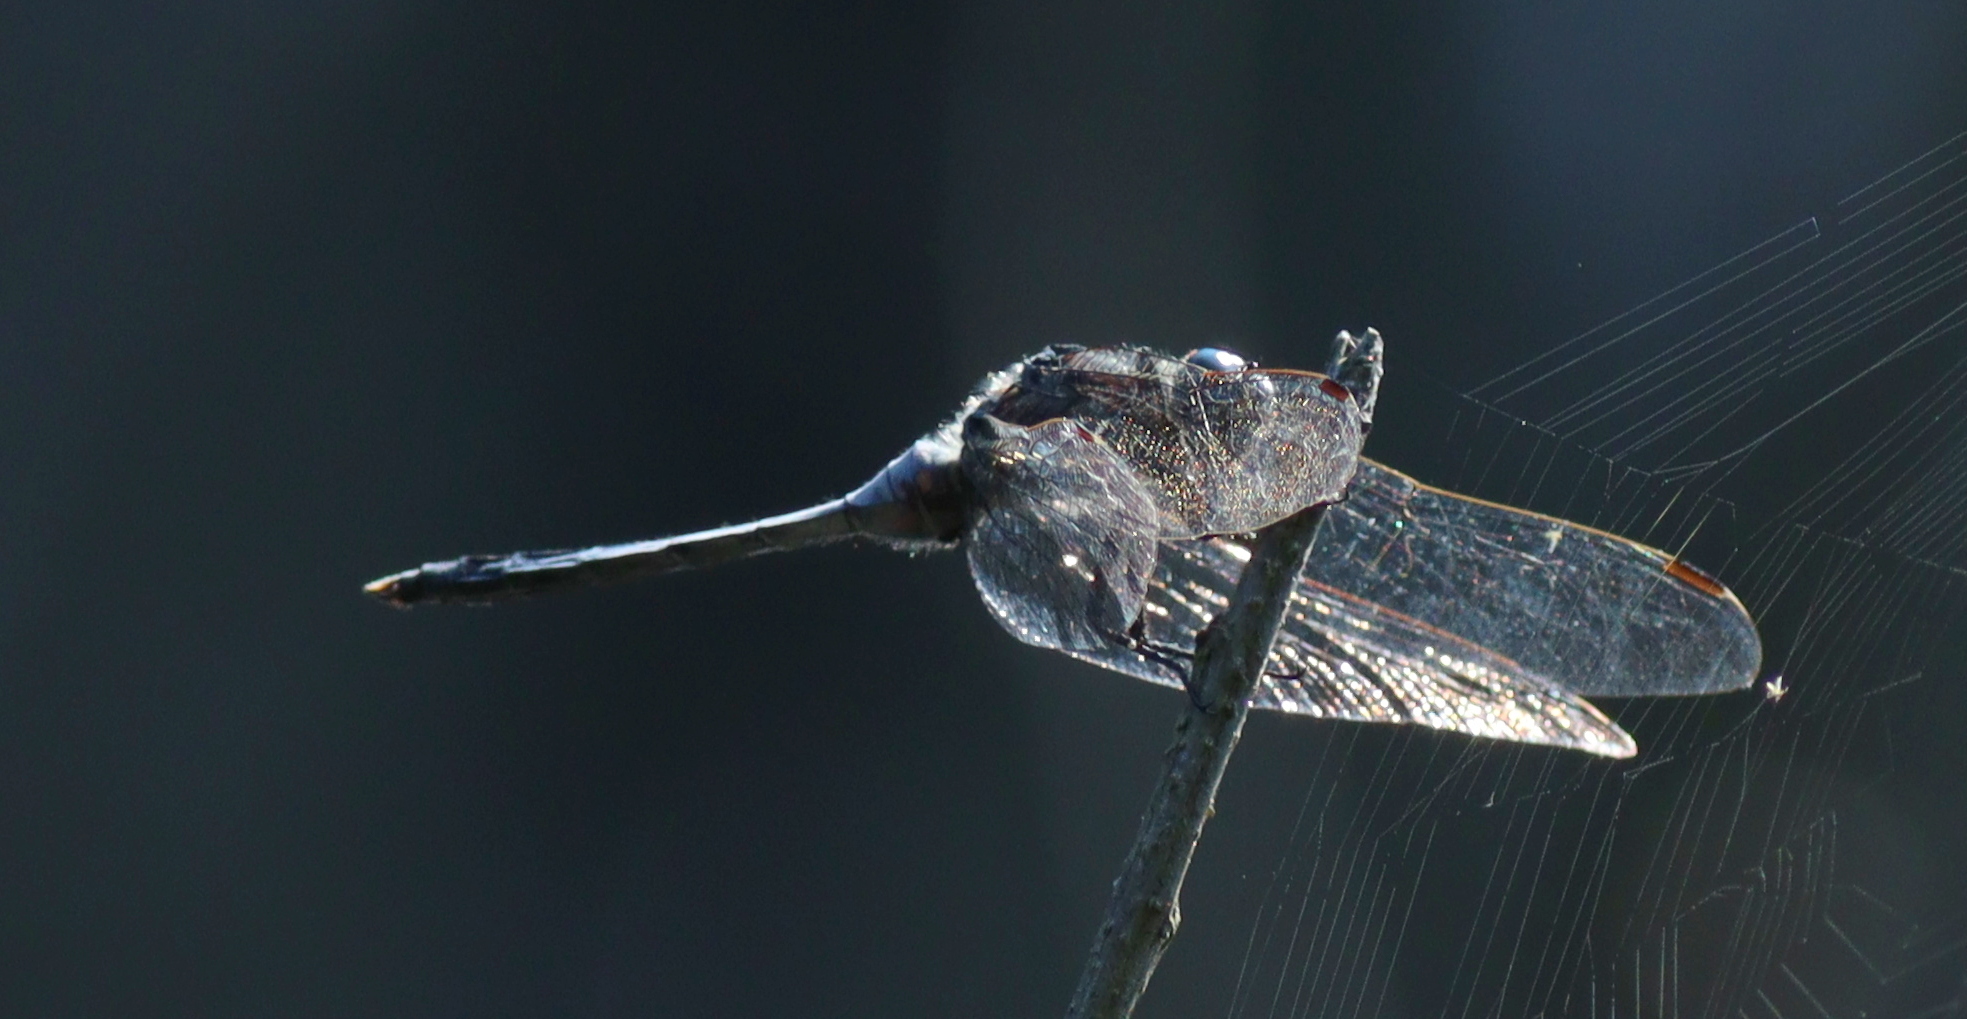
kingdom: Animalia
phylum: Arthropoda
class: Insecta
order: Odonata
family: Libellulidae
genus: Orthetrum
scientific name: Orthetrum albistylum
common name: White-tailed skimmer
